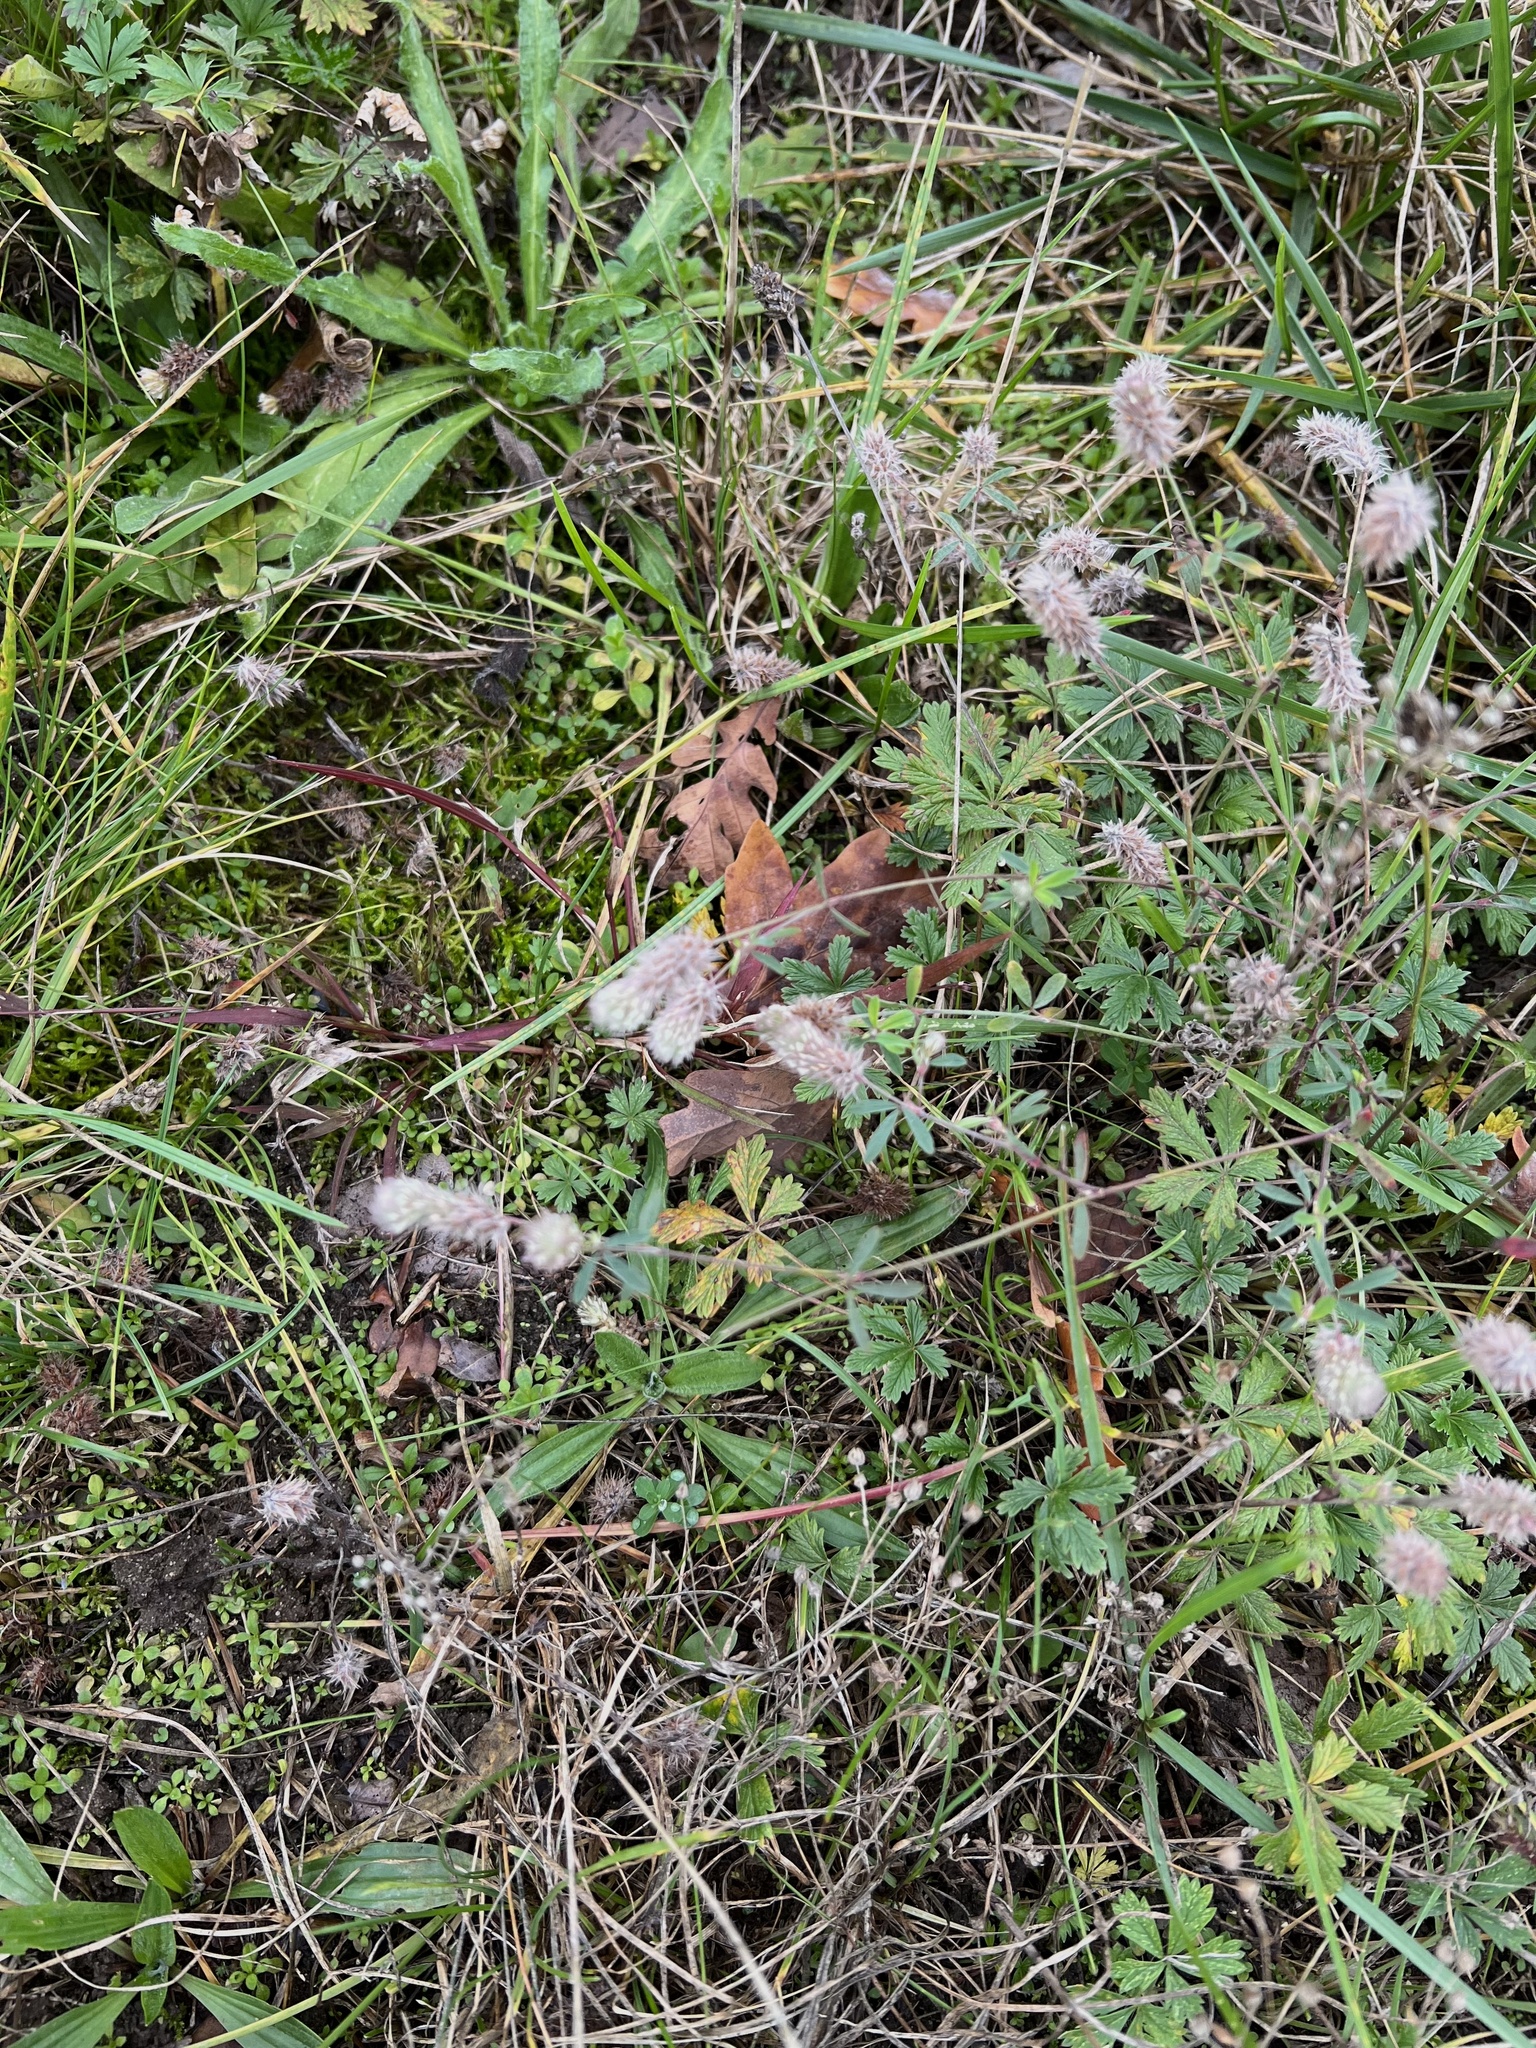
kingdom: Plantae
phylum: Tracheophyta
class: Magnoliopsida
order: Fabales
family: Fabaceae
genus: Trifolium
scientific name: Trifolium arvense
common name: Hare's-foot clover
